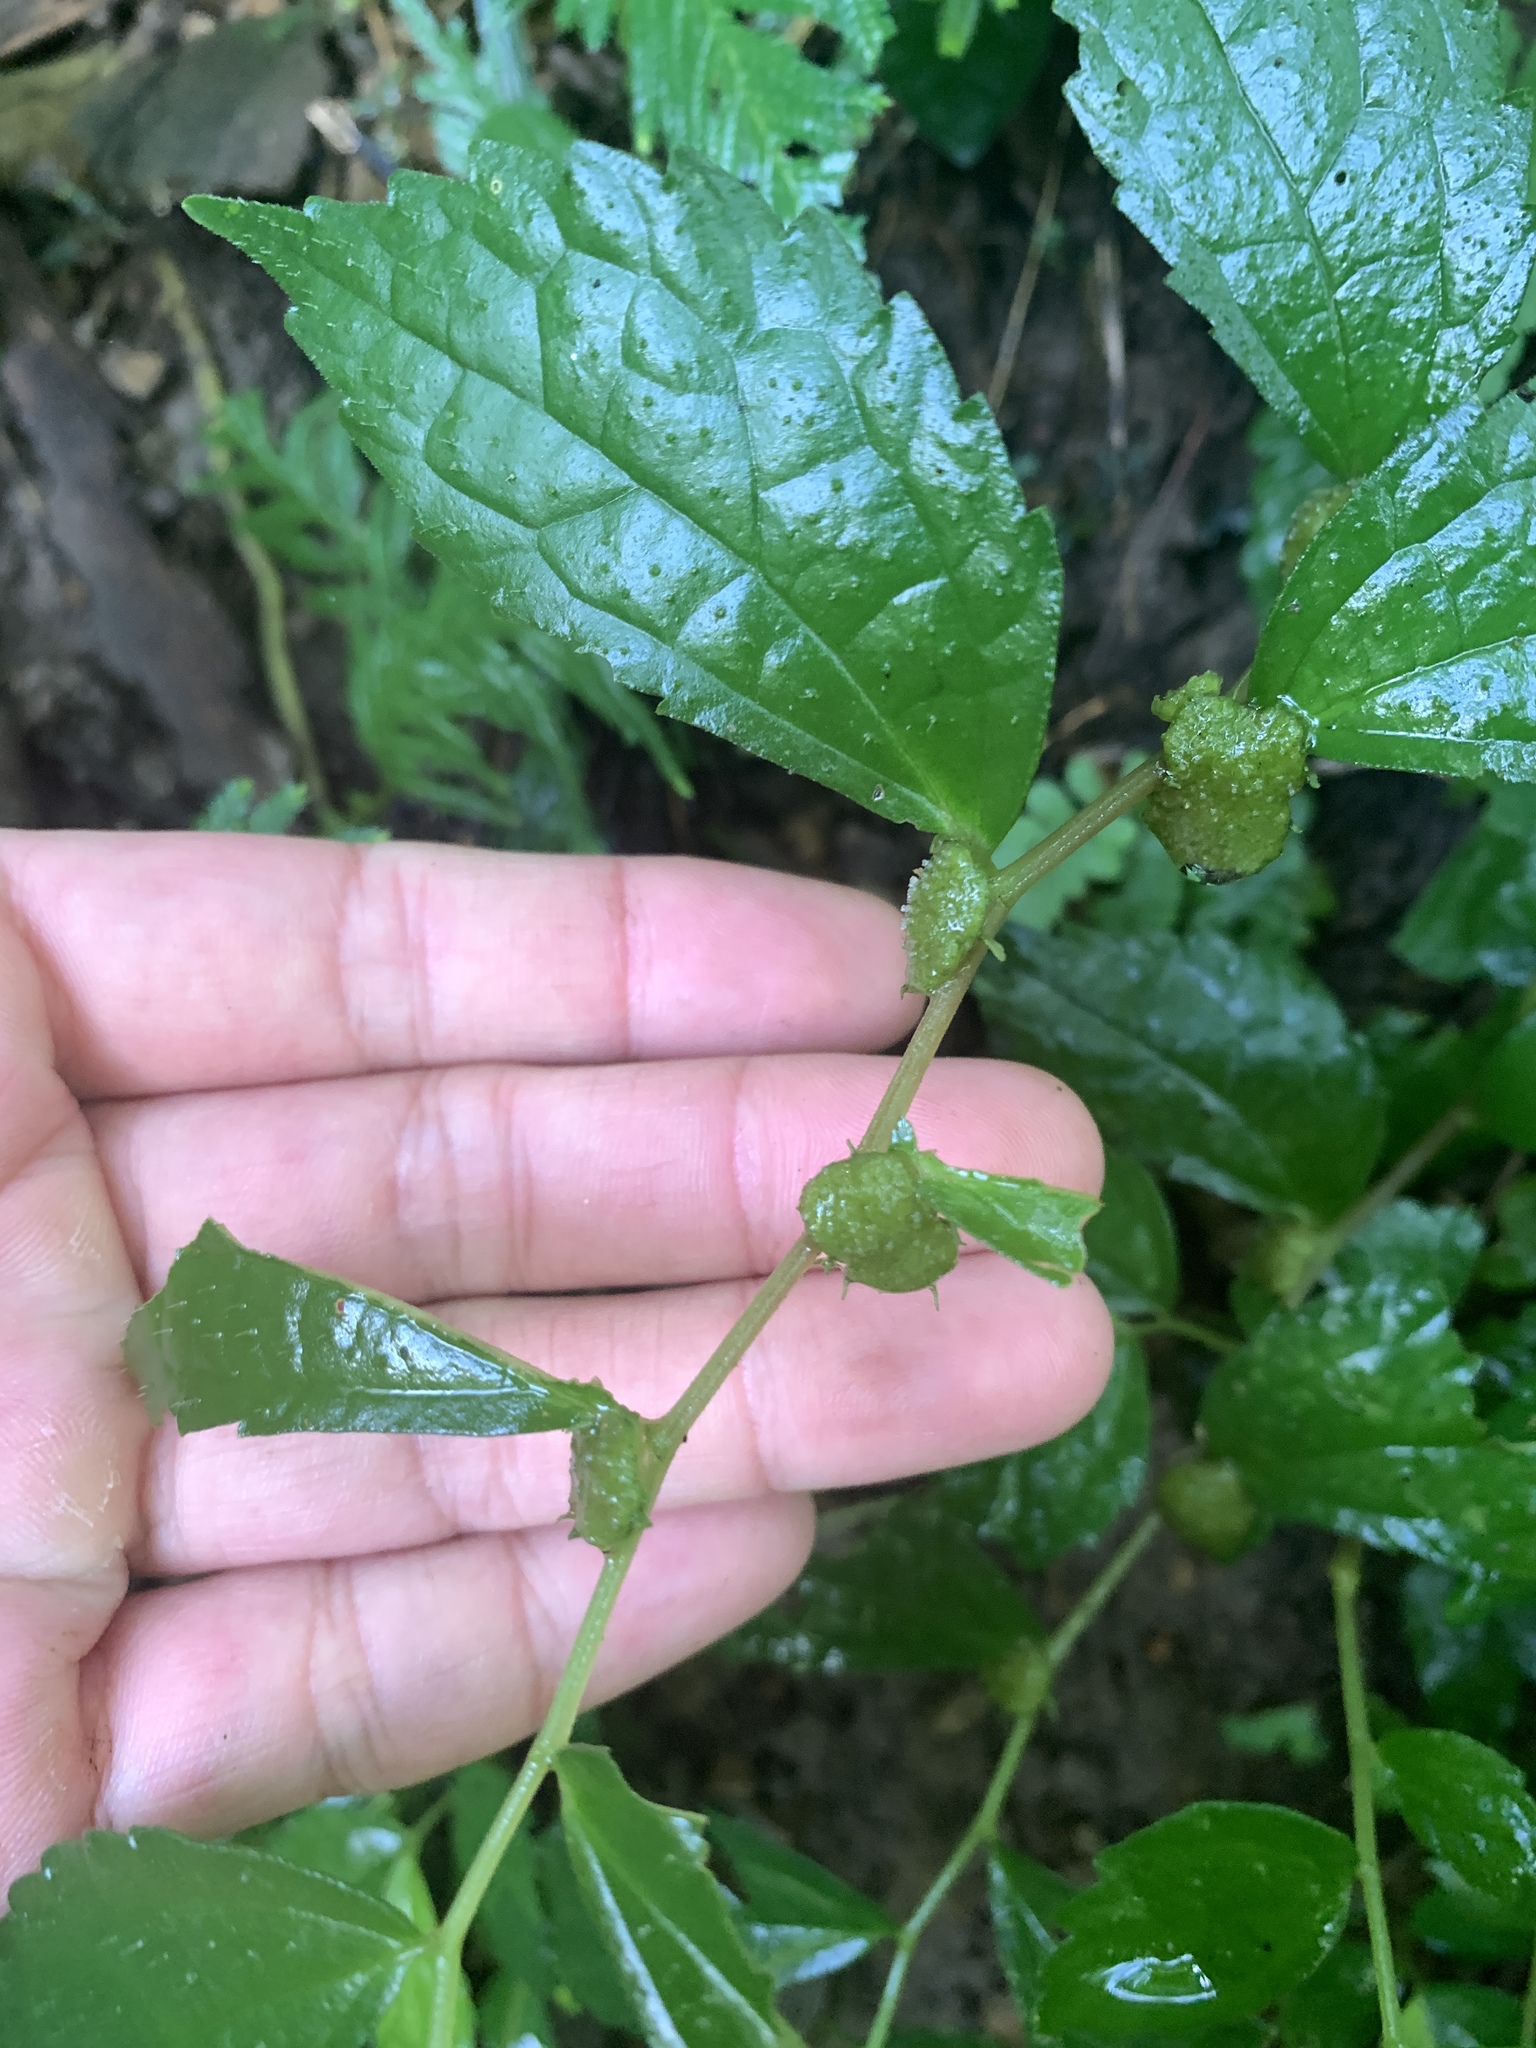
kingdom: Plantae
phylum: Tracheophyta
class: Magnoliopsida
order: Rosales
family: Urticaceae
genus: Elatostema
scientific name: Elatostema cyrtandrifolium
